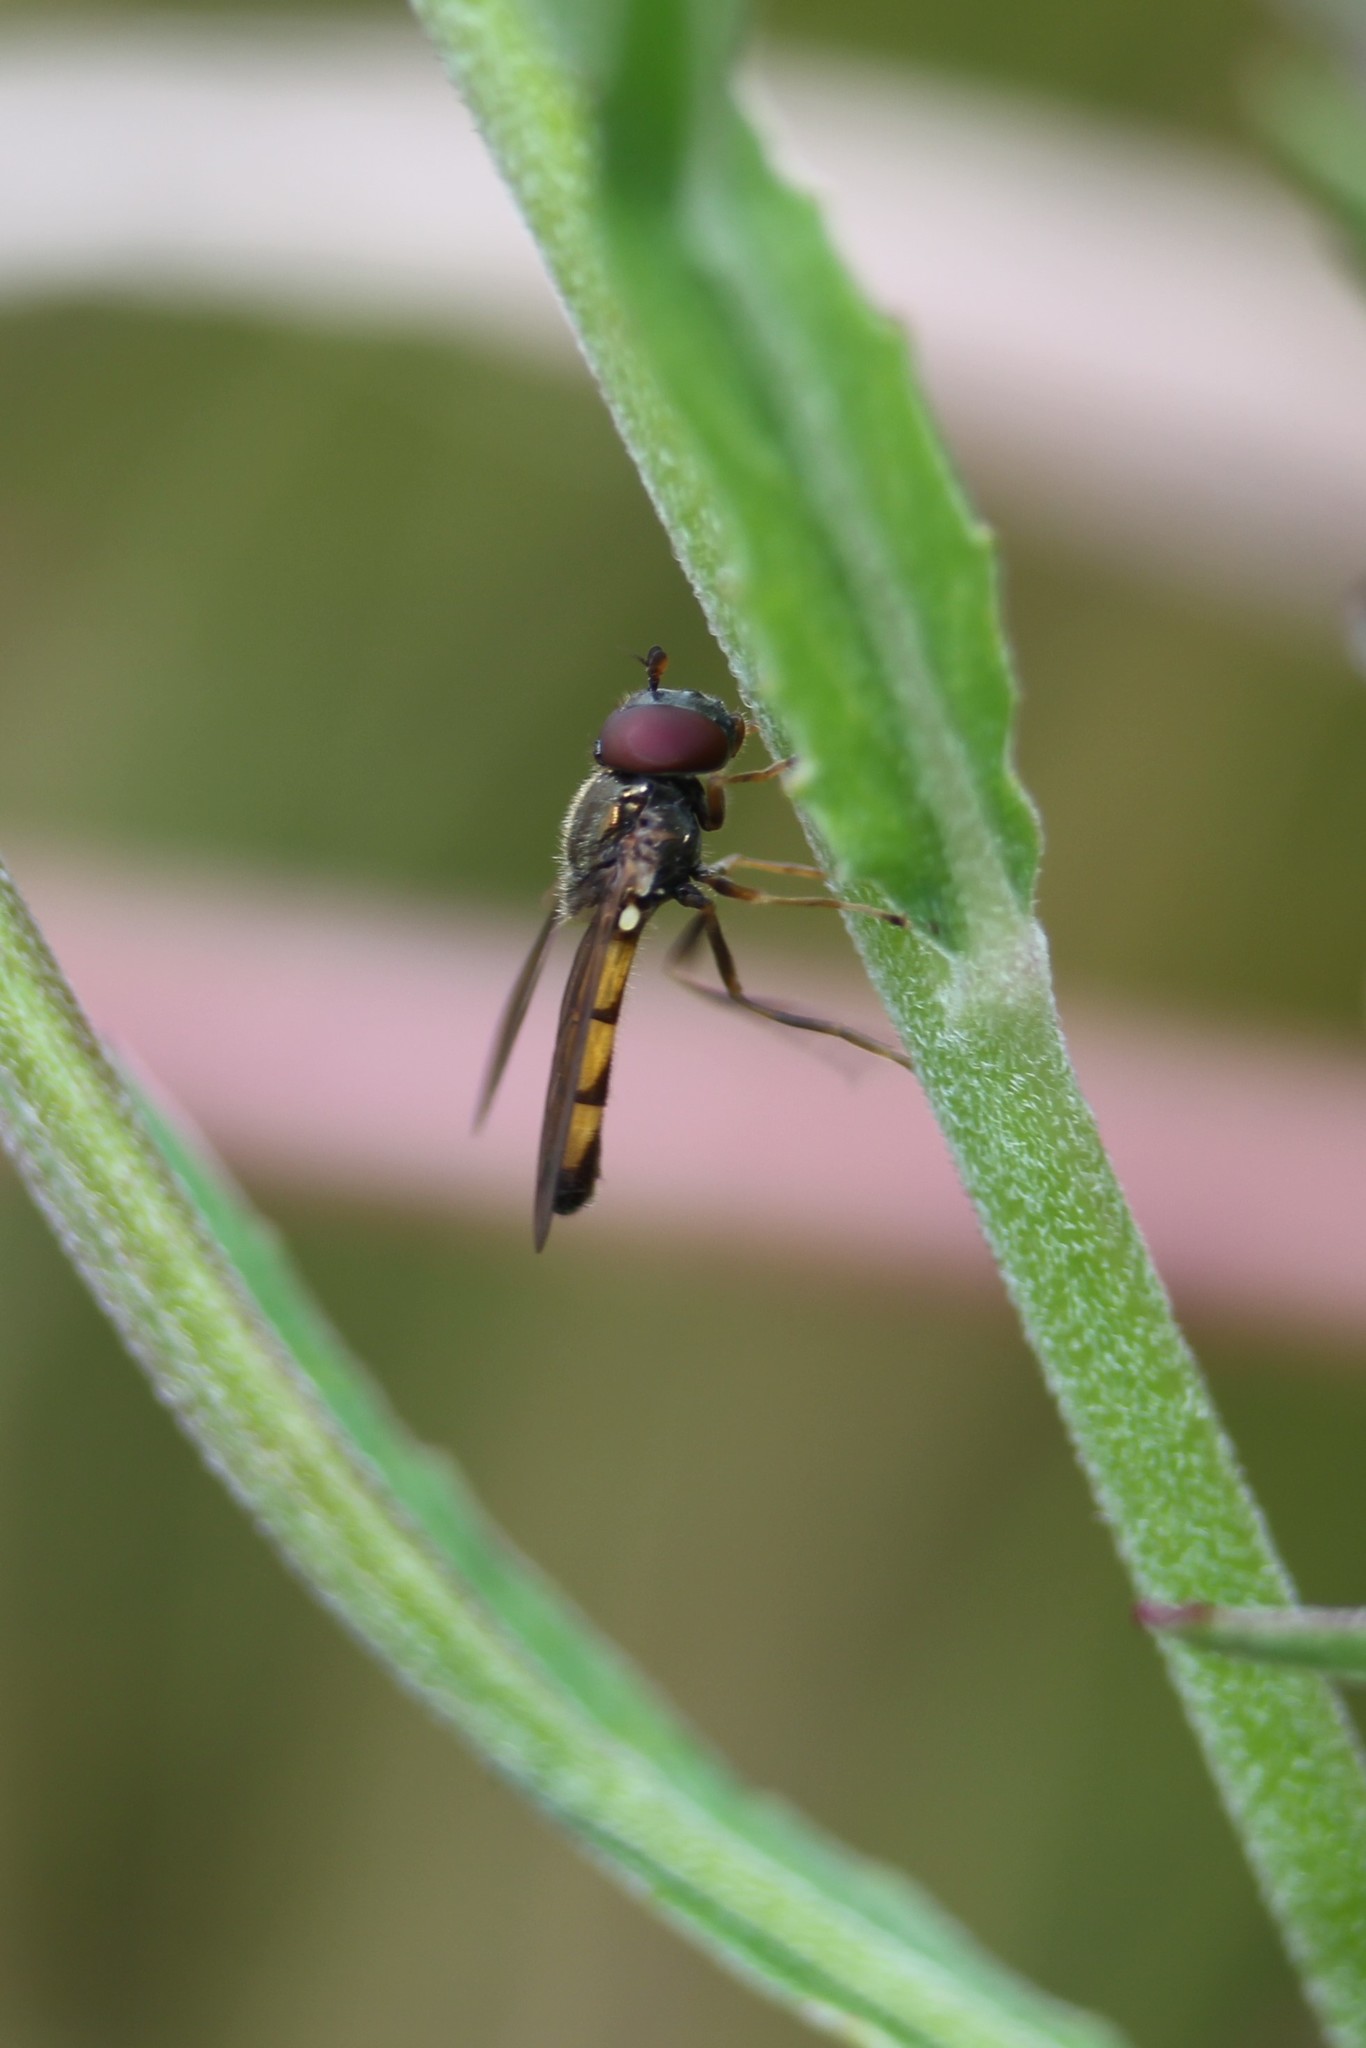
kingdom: Animalia
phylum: Arthropoda
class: Insecta
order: Diptera
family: Syrphidae
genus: Melanostoma
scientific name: Melanostoma fasciatum
